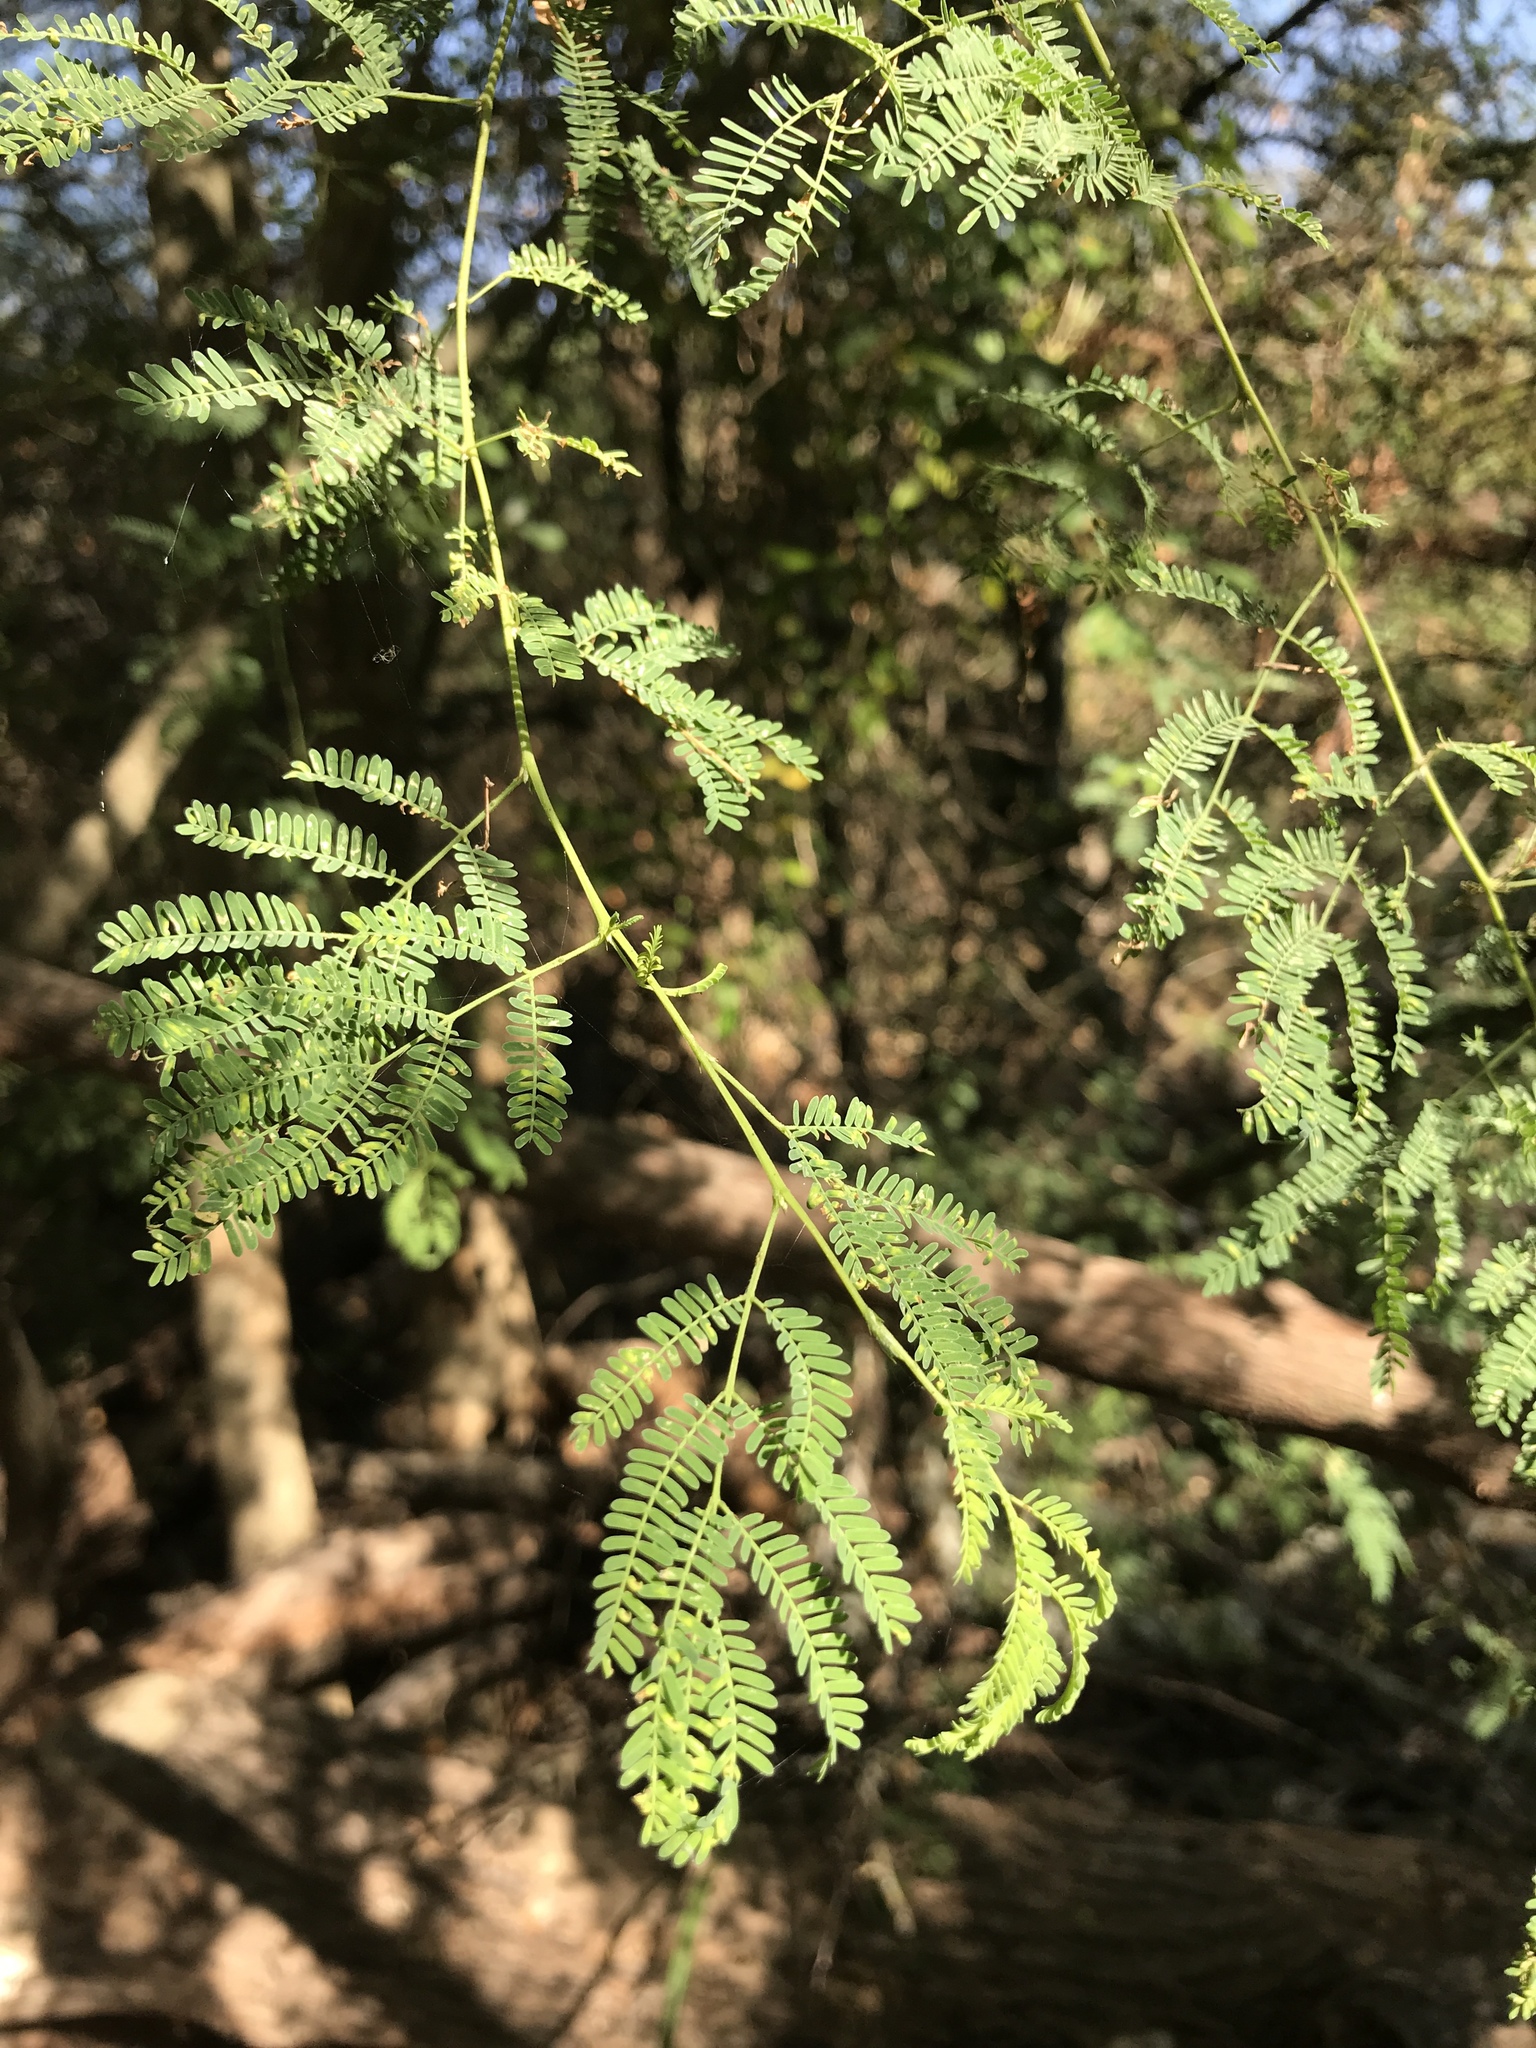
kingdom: Plantae
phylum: Tracheophyta
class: Magnoliopsida
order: Fabales
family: Fabaceae
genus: Vachellia
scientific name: Vachellia farnesiana
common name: Sweet acacia
